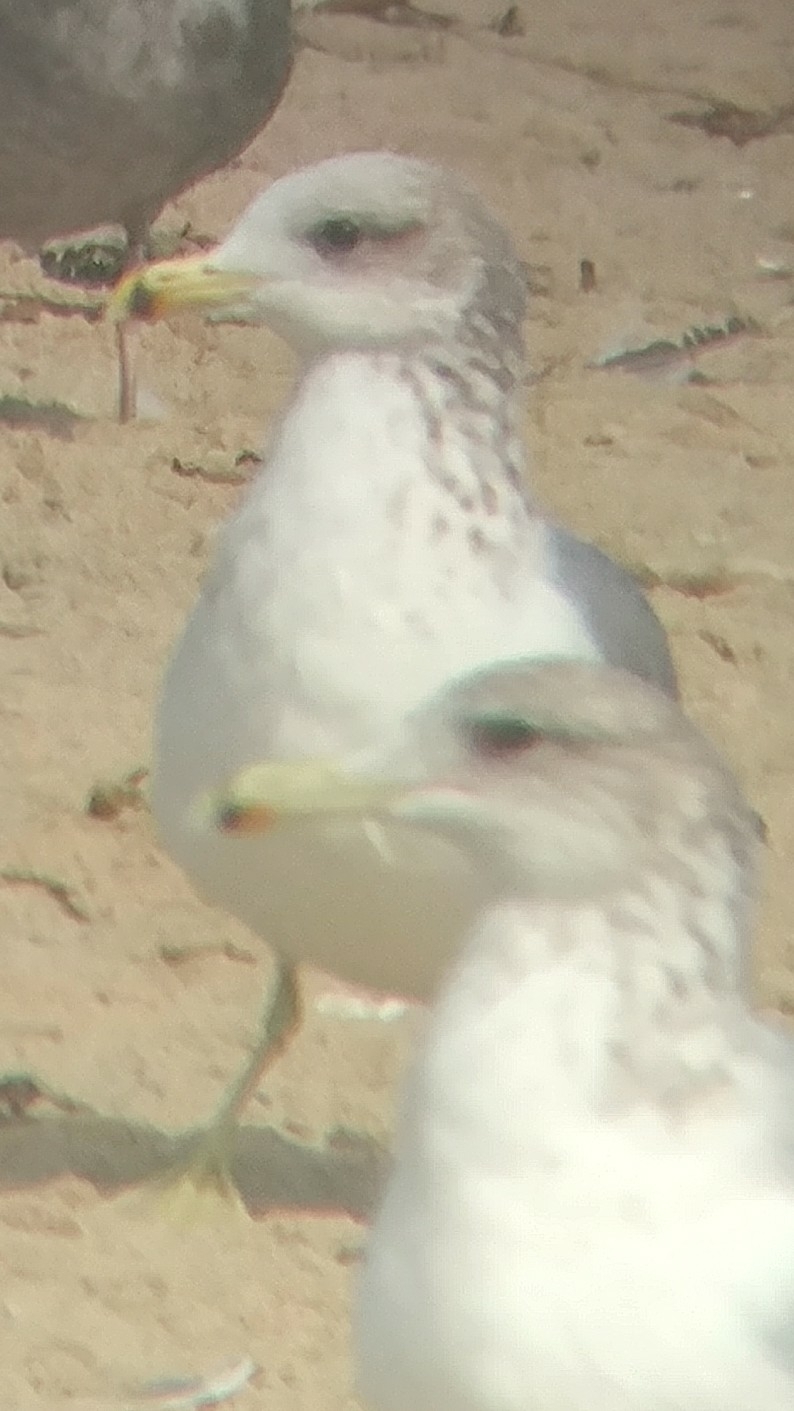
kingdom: Animalia
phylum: Chordata
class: Aves
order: Charadriiformes
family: Laridae
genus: Larus
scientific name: Larus californicus
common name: California gull
